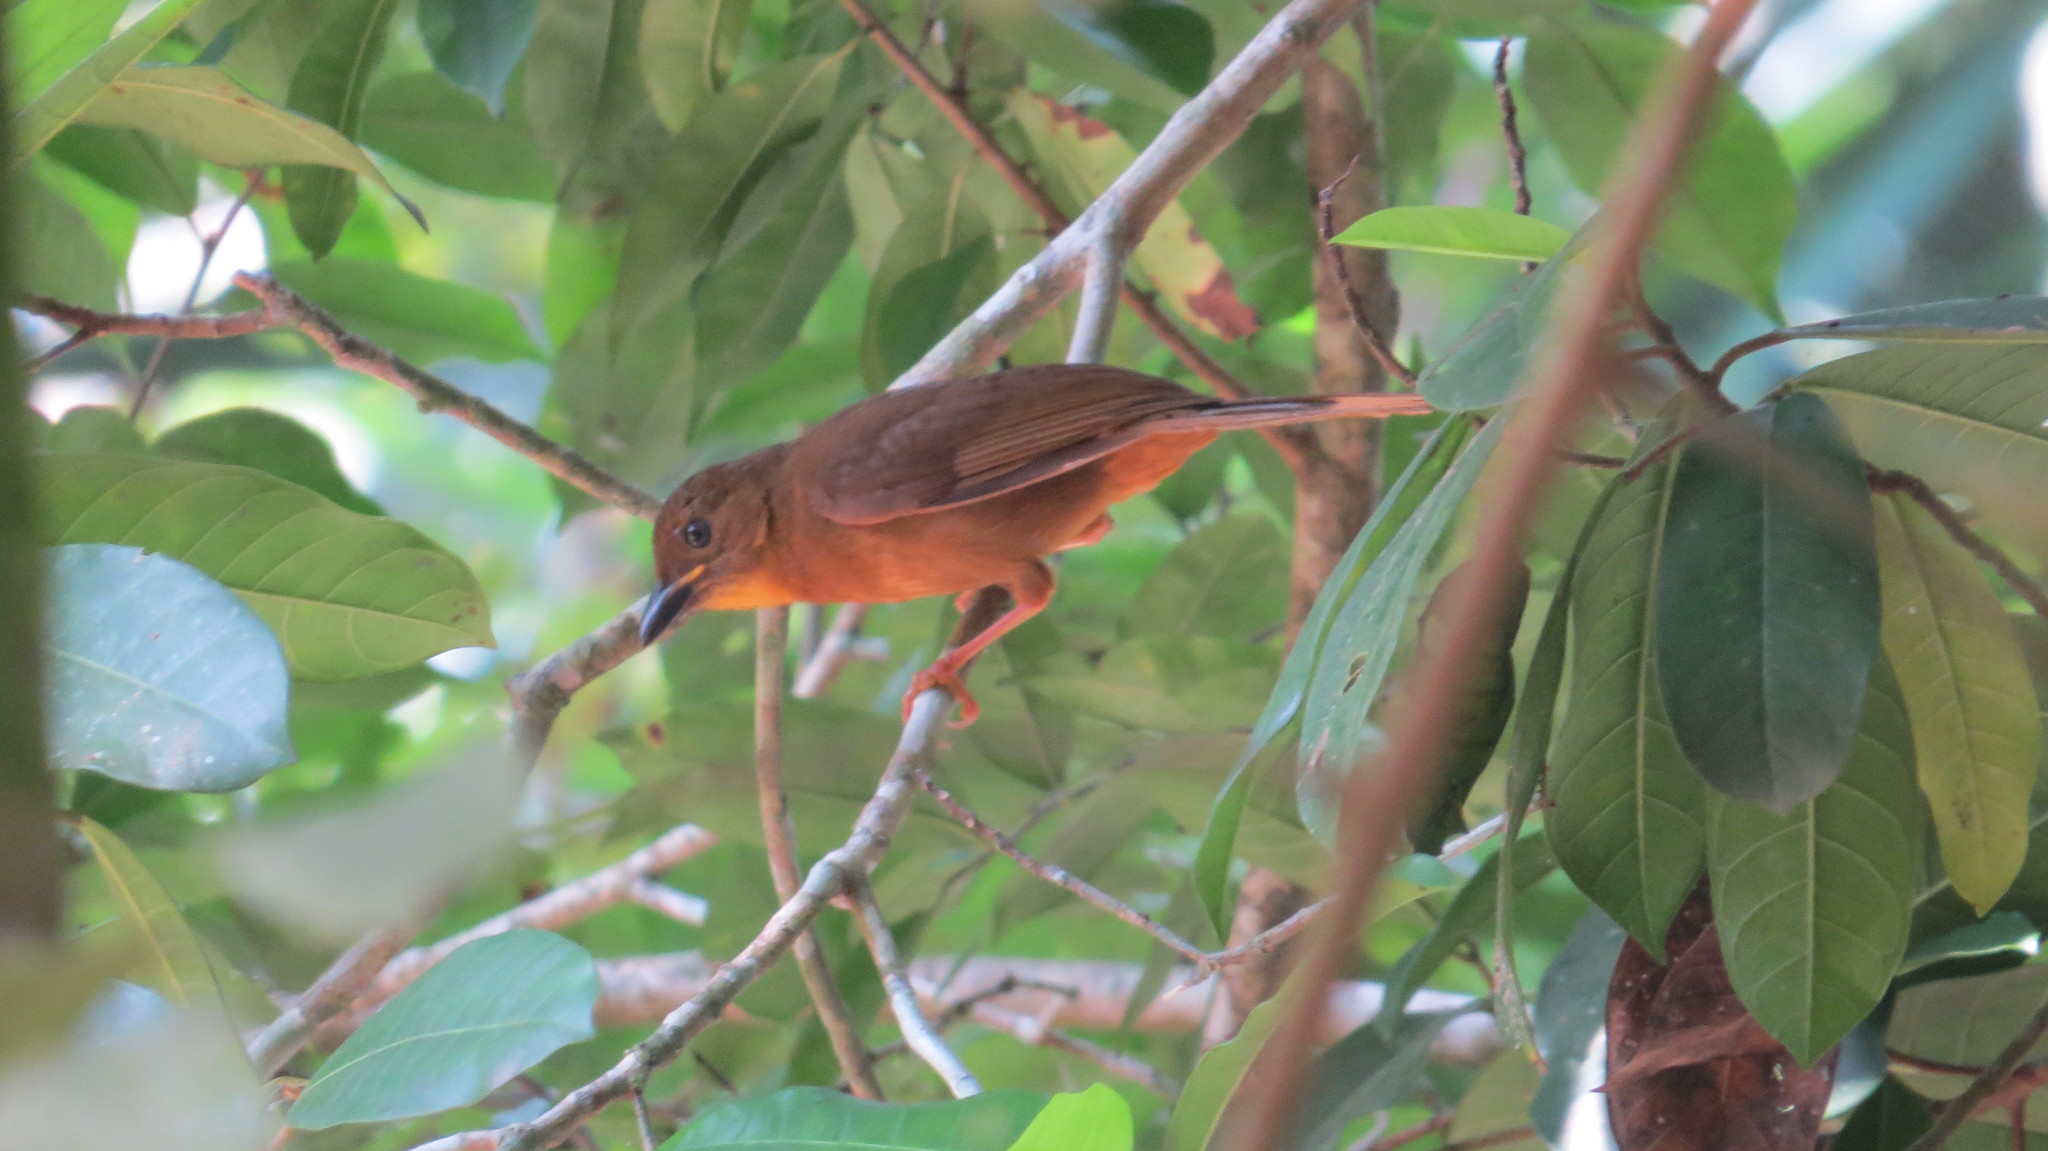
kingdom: Animalia
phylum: Chordata
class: Aves
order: Passeriformes
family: Cardinalidae
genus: Habia
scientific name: Habia fuscicauda
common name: Red-throated ant-tanager
